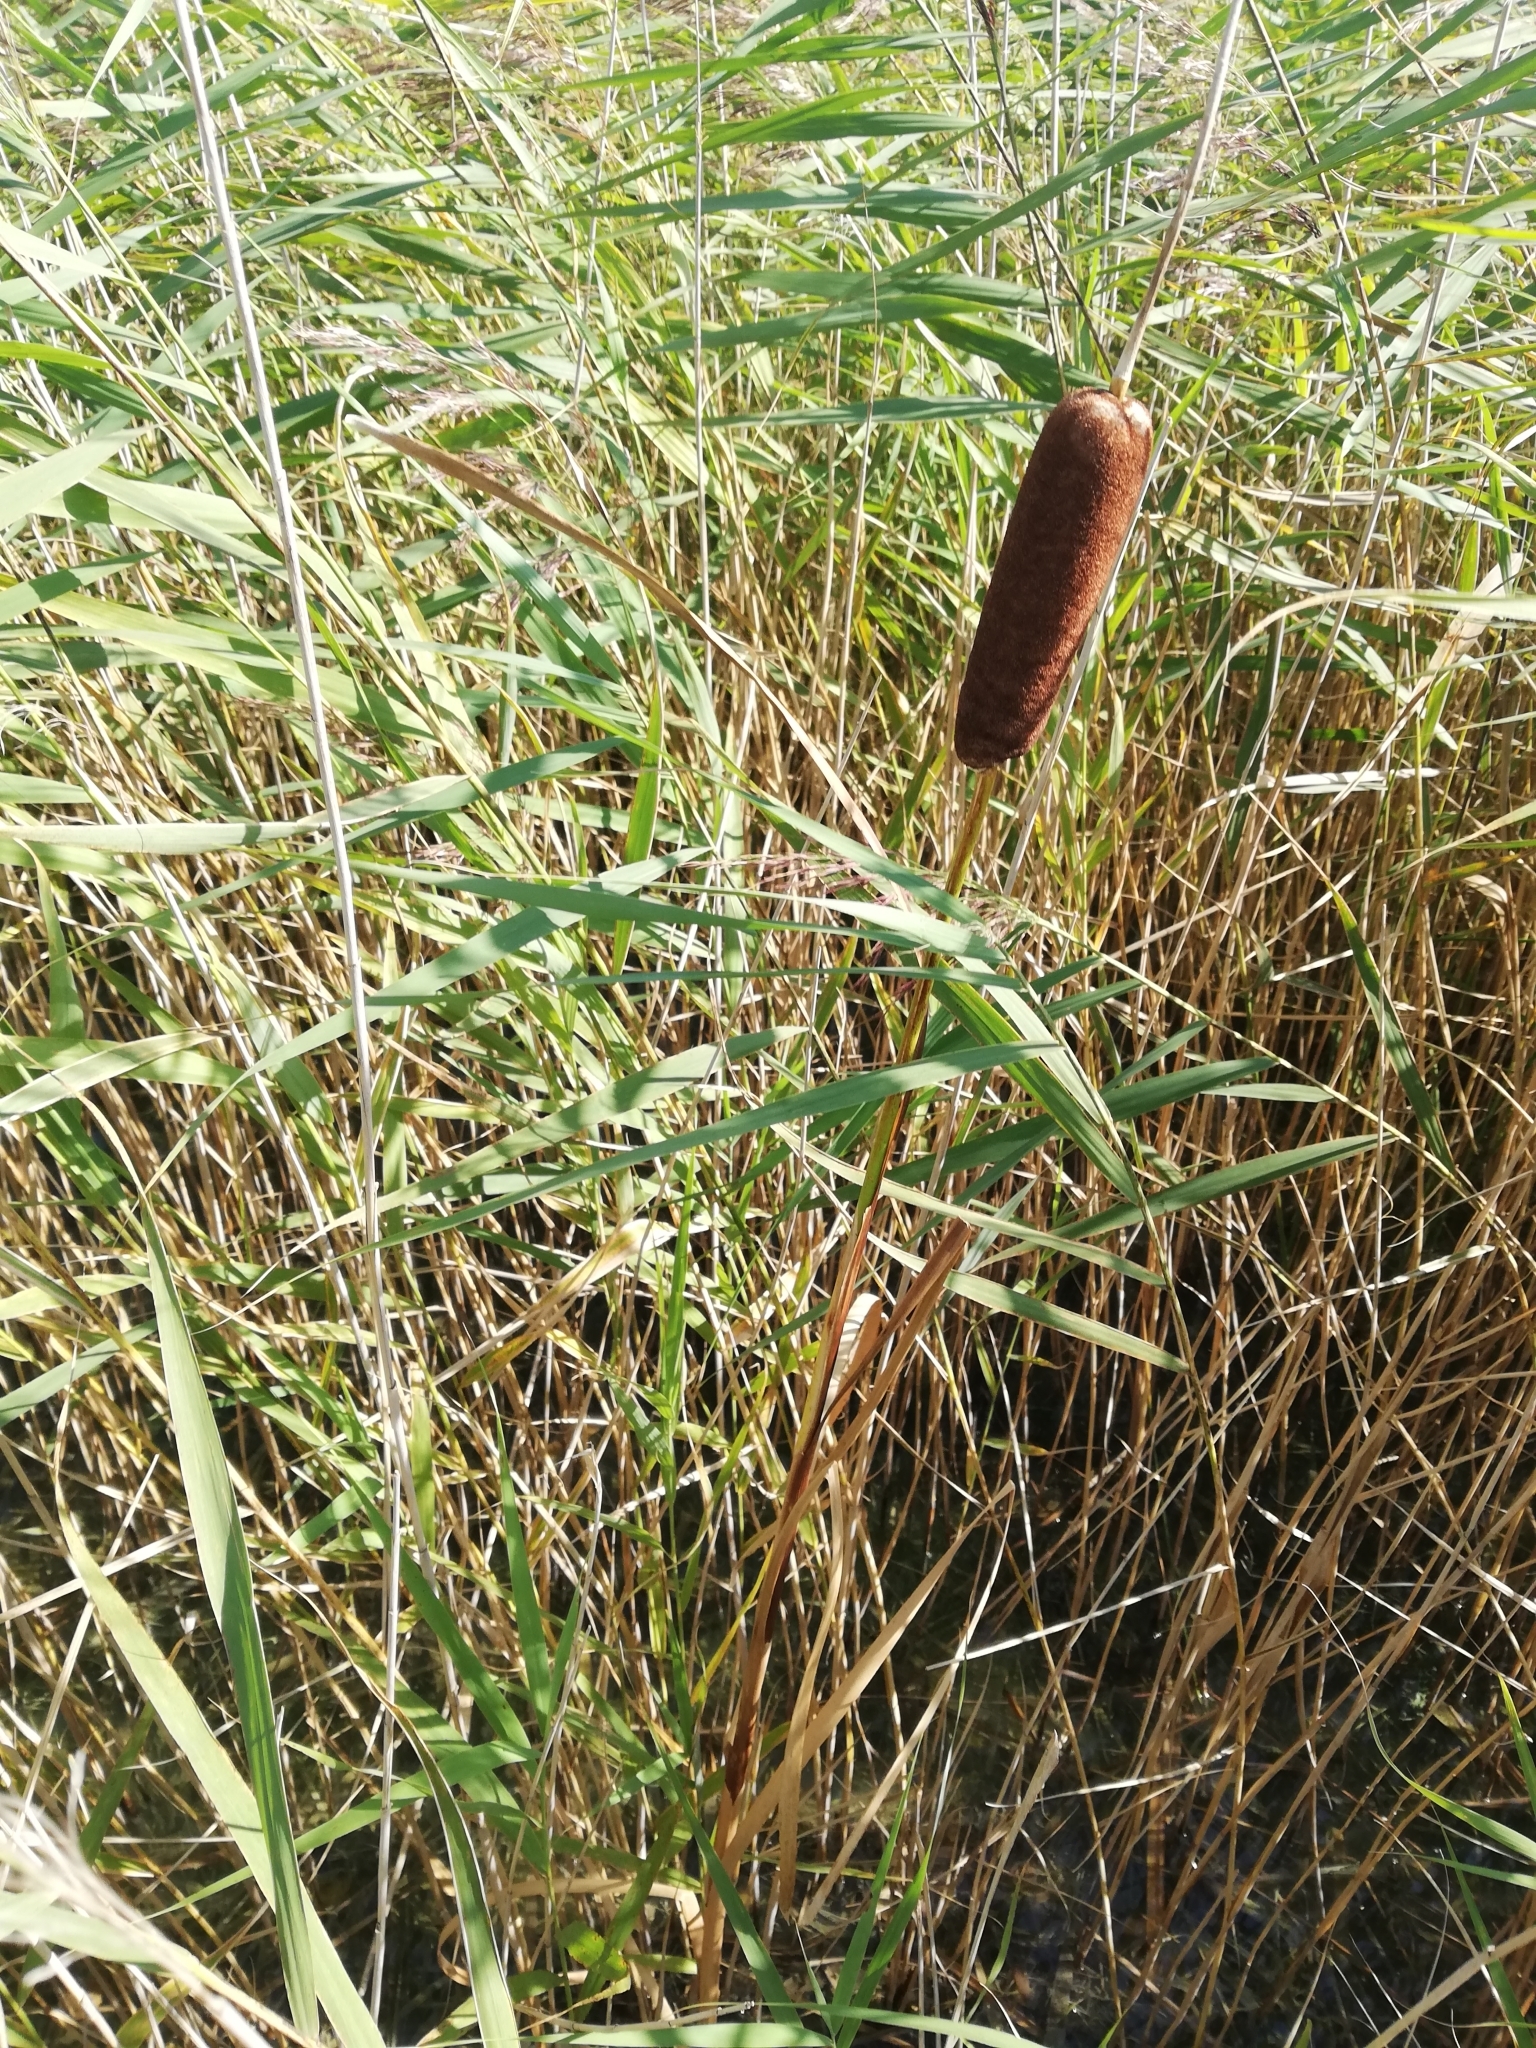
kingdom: Plantae
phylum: Tracheophyta
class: Liliopsida
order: Poales
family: Typhaceae
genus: Typha
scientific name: Typha latifolia
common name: Broadleaf cattail
